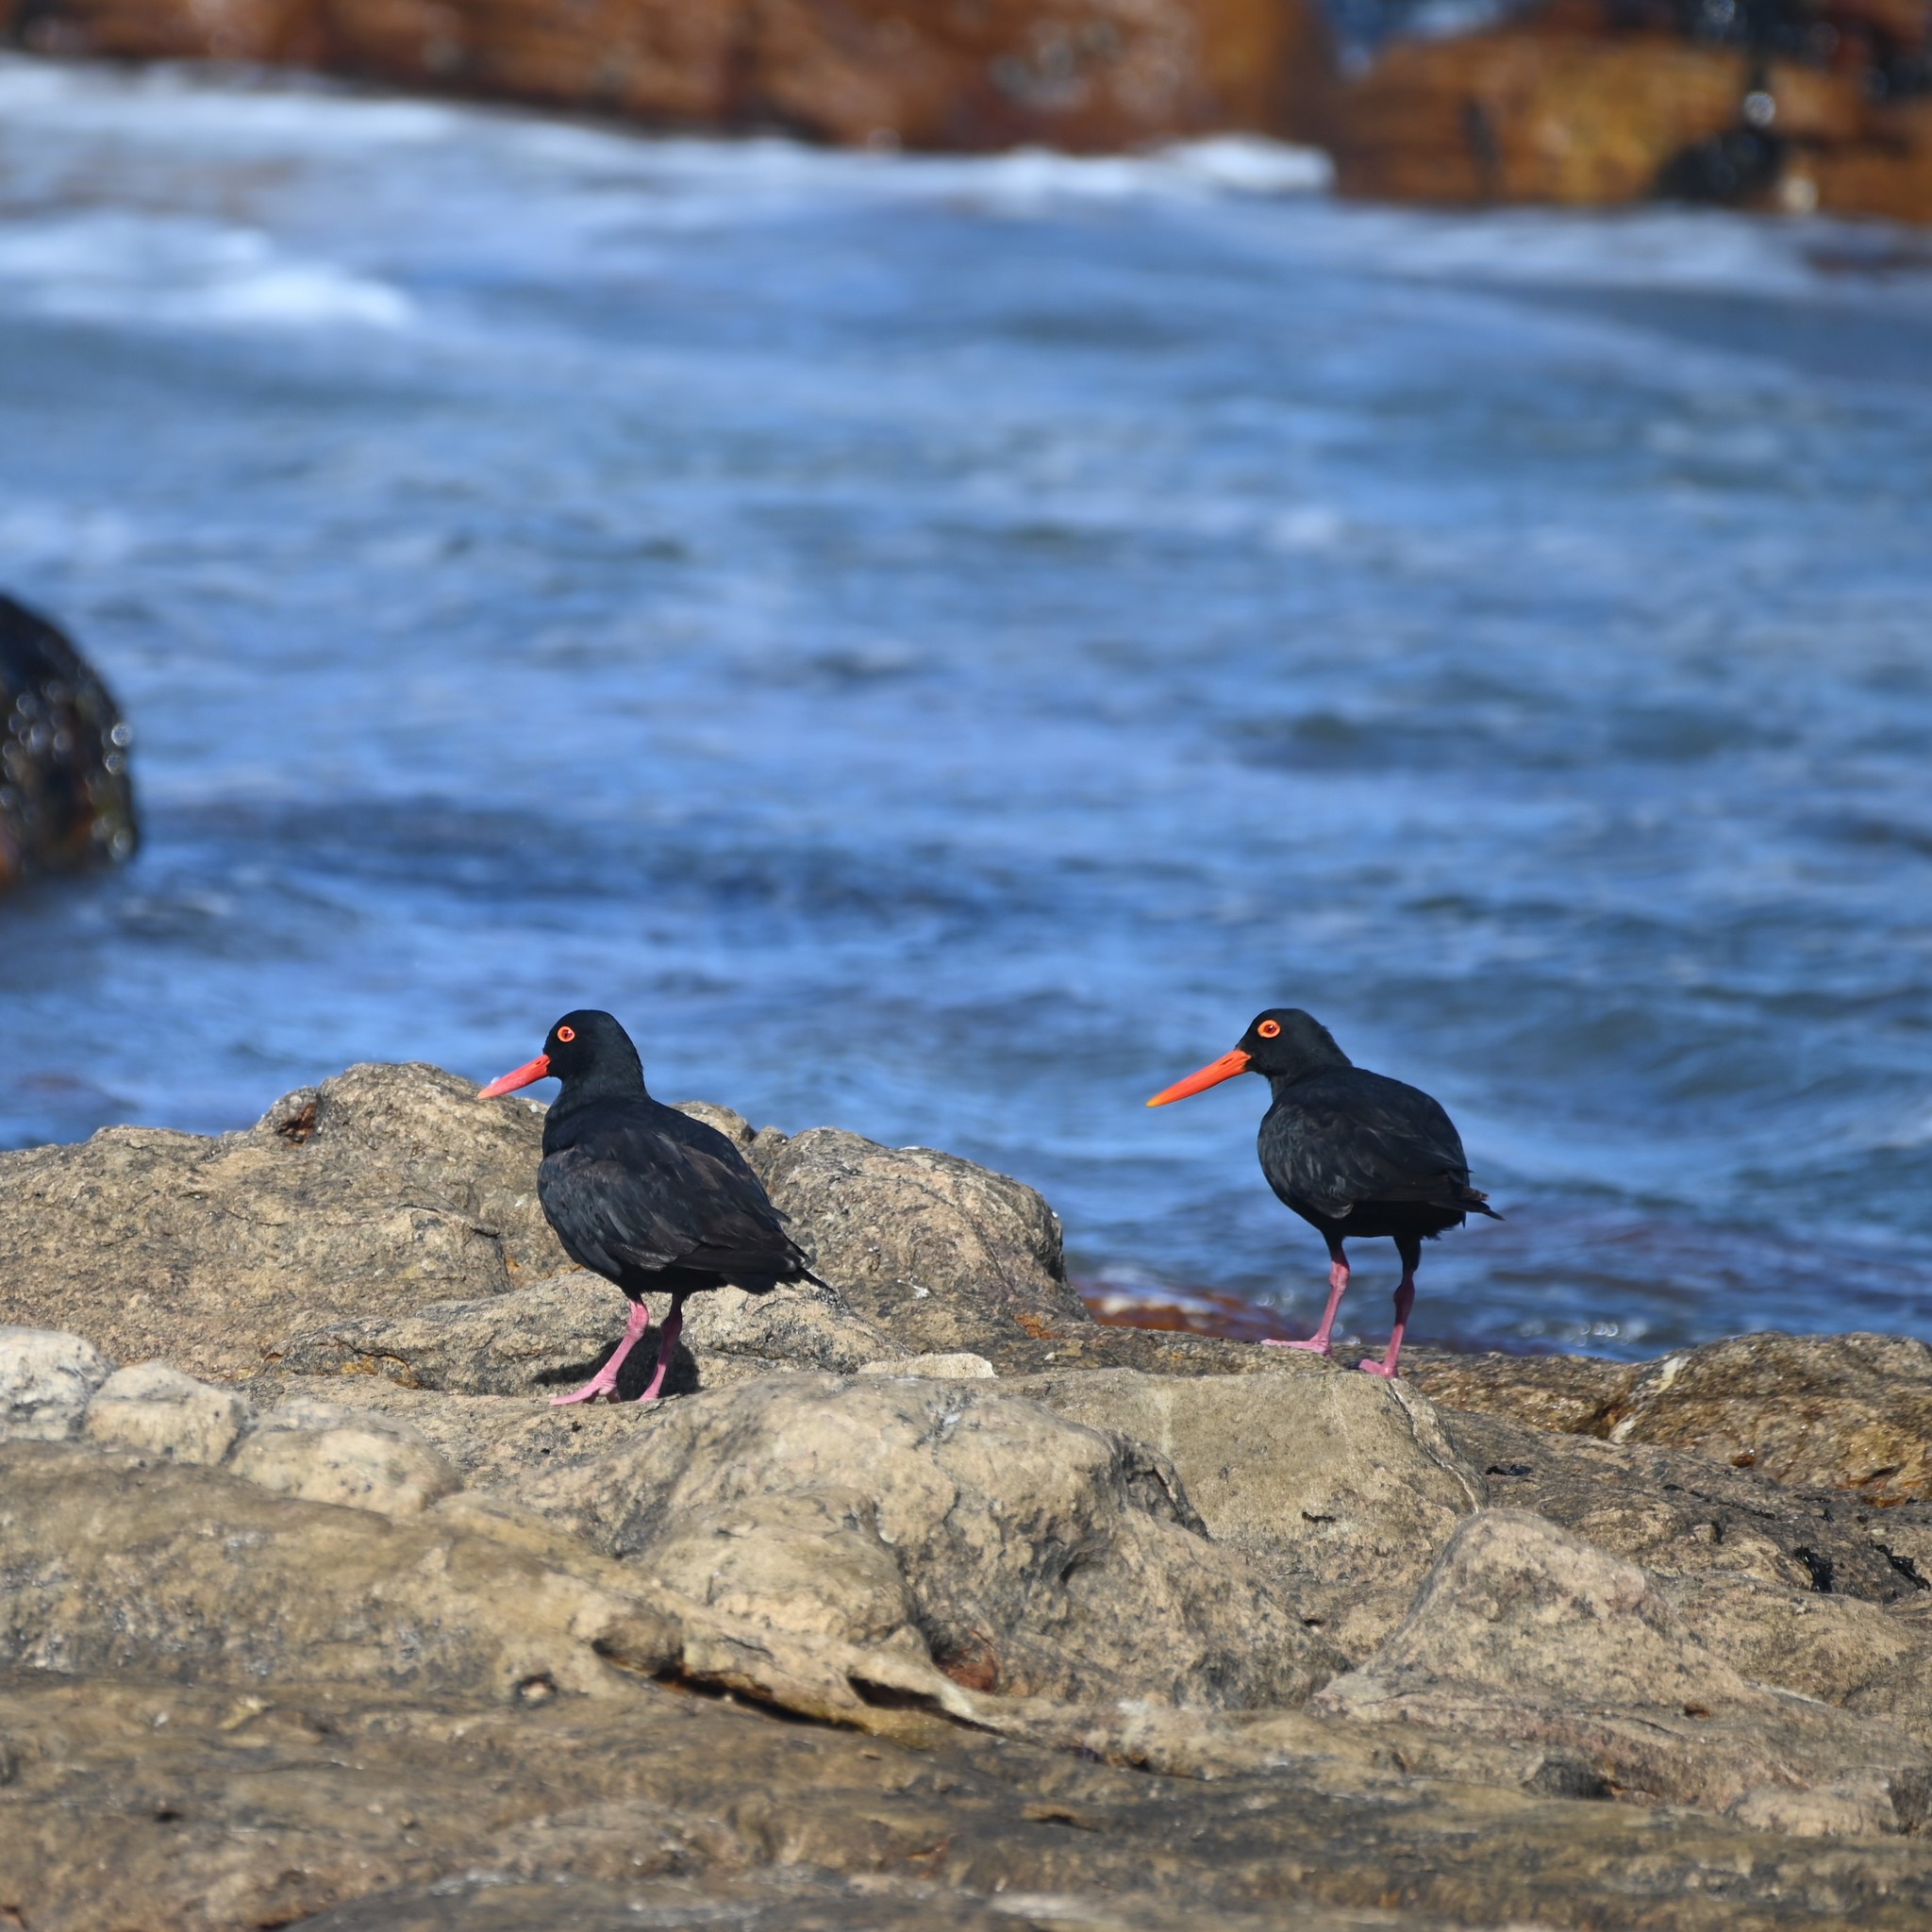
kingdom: Animalia
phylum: Chordata
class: Aves
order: Charadriiformes
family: Haematopodidae
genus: Haematopus
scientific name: Haematopus moquini
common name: African oystercatcher
